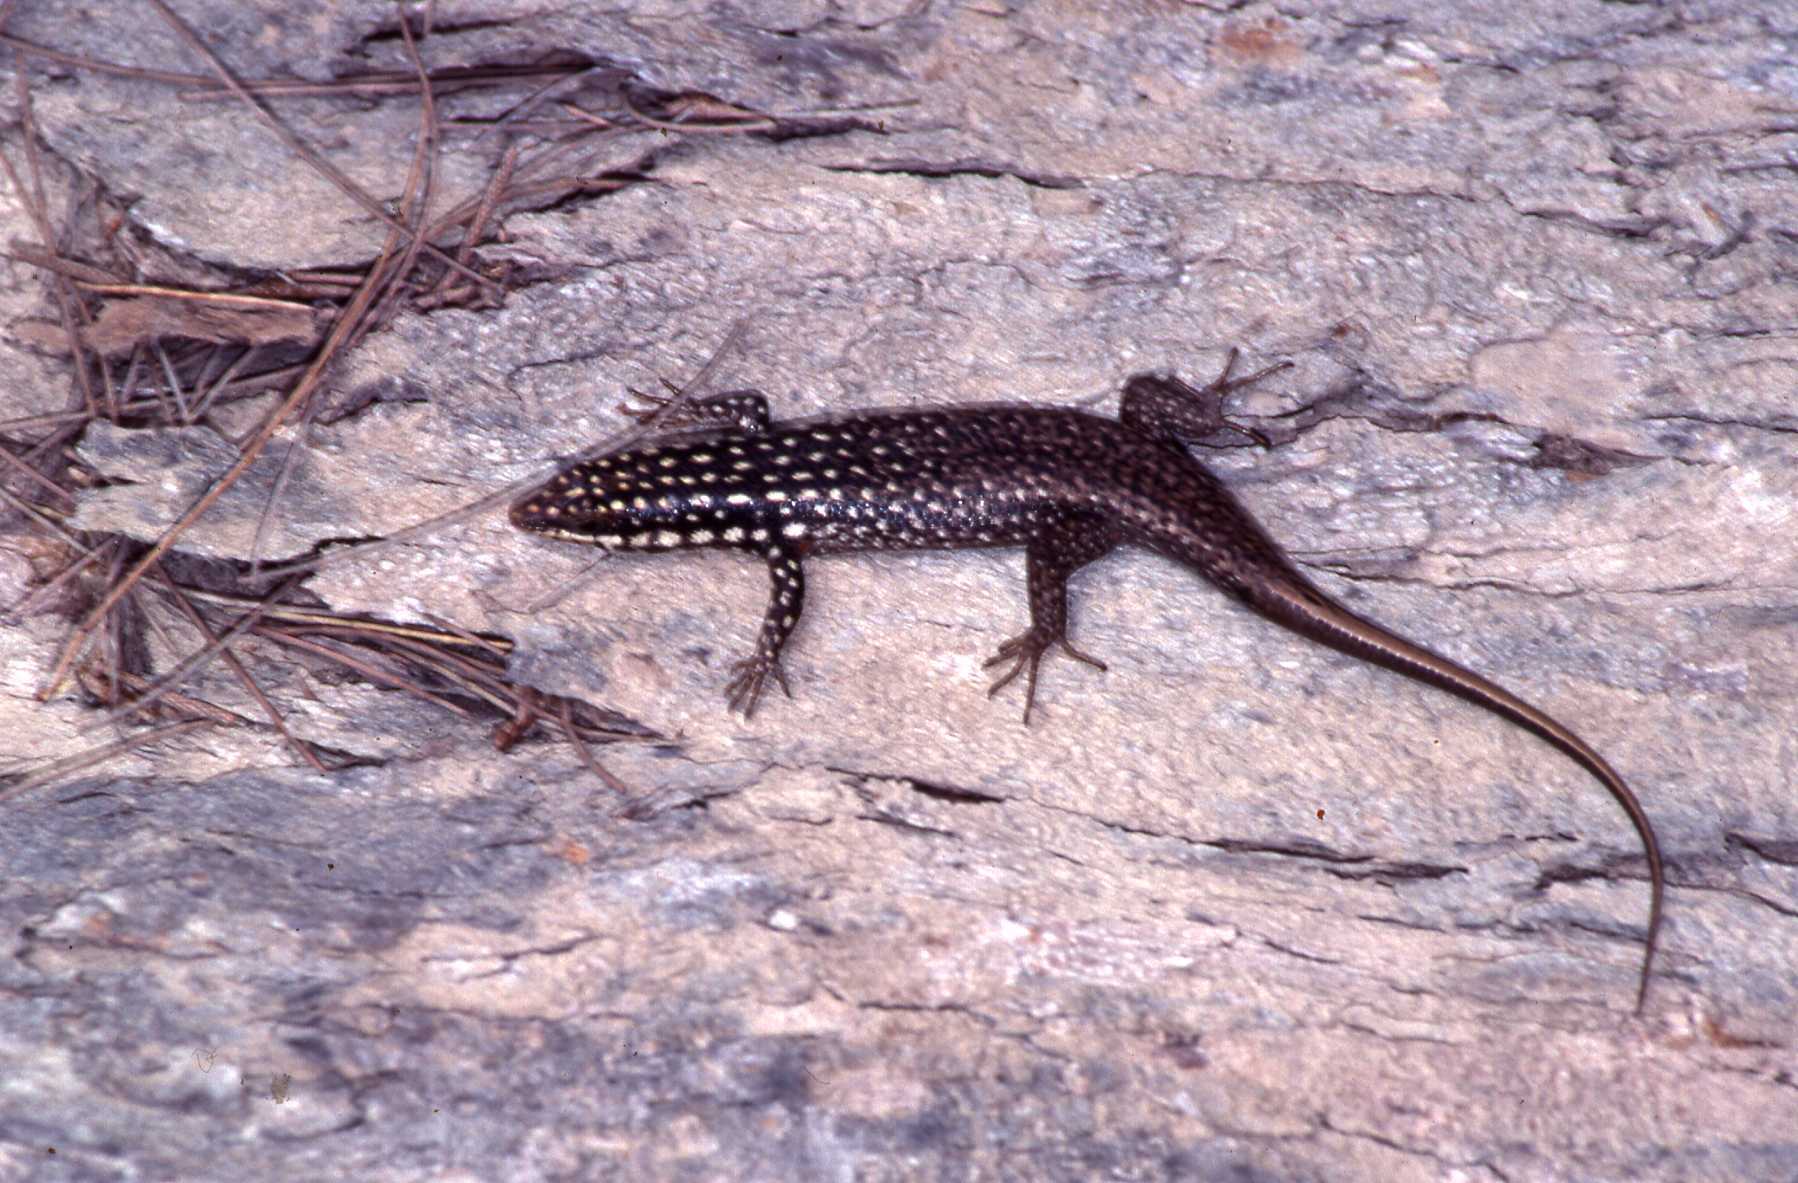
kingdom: Animalia
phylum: Chordata
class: Squamata
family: Scincidae
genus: Trachylepis
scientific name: Trachylepis vezo
